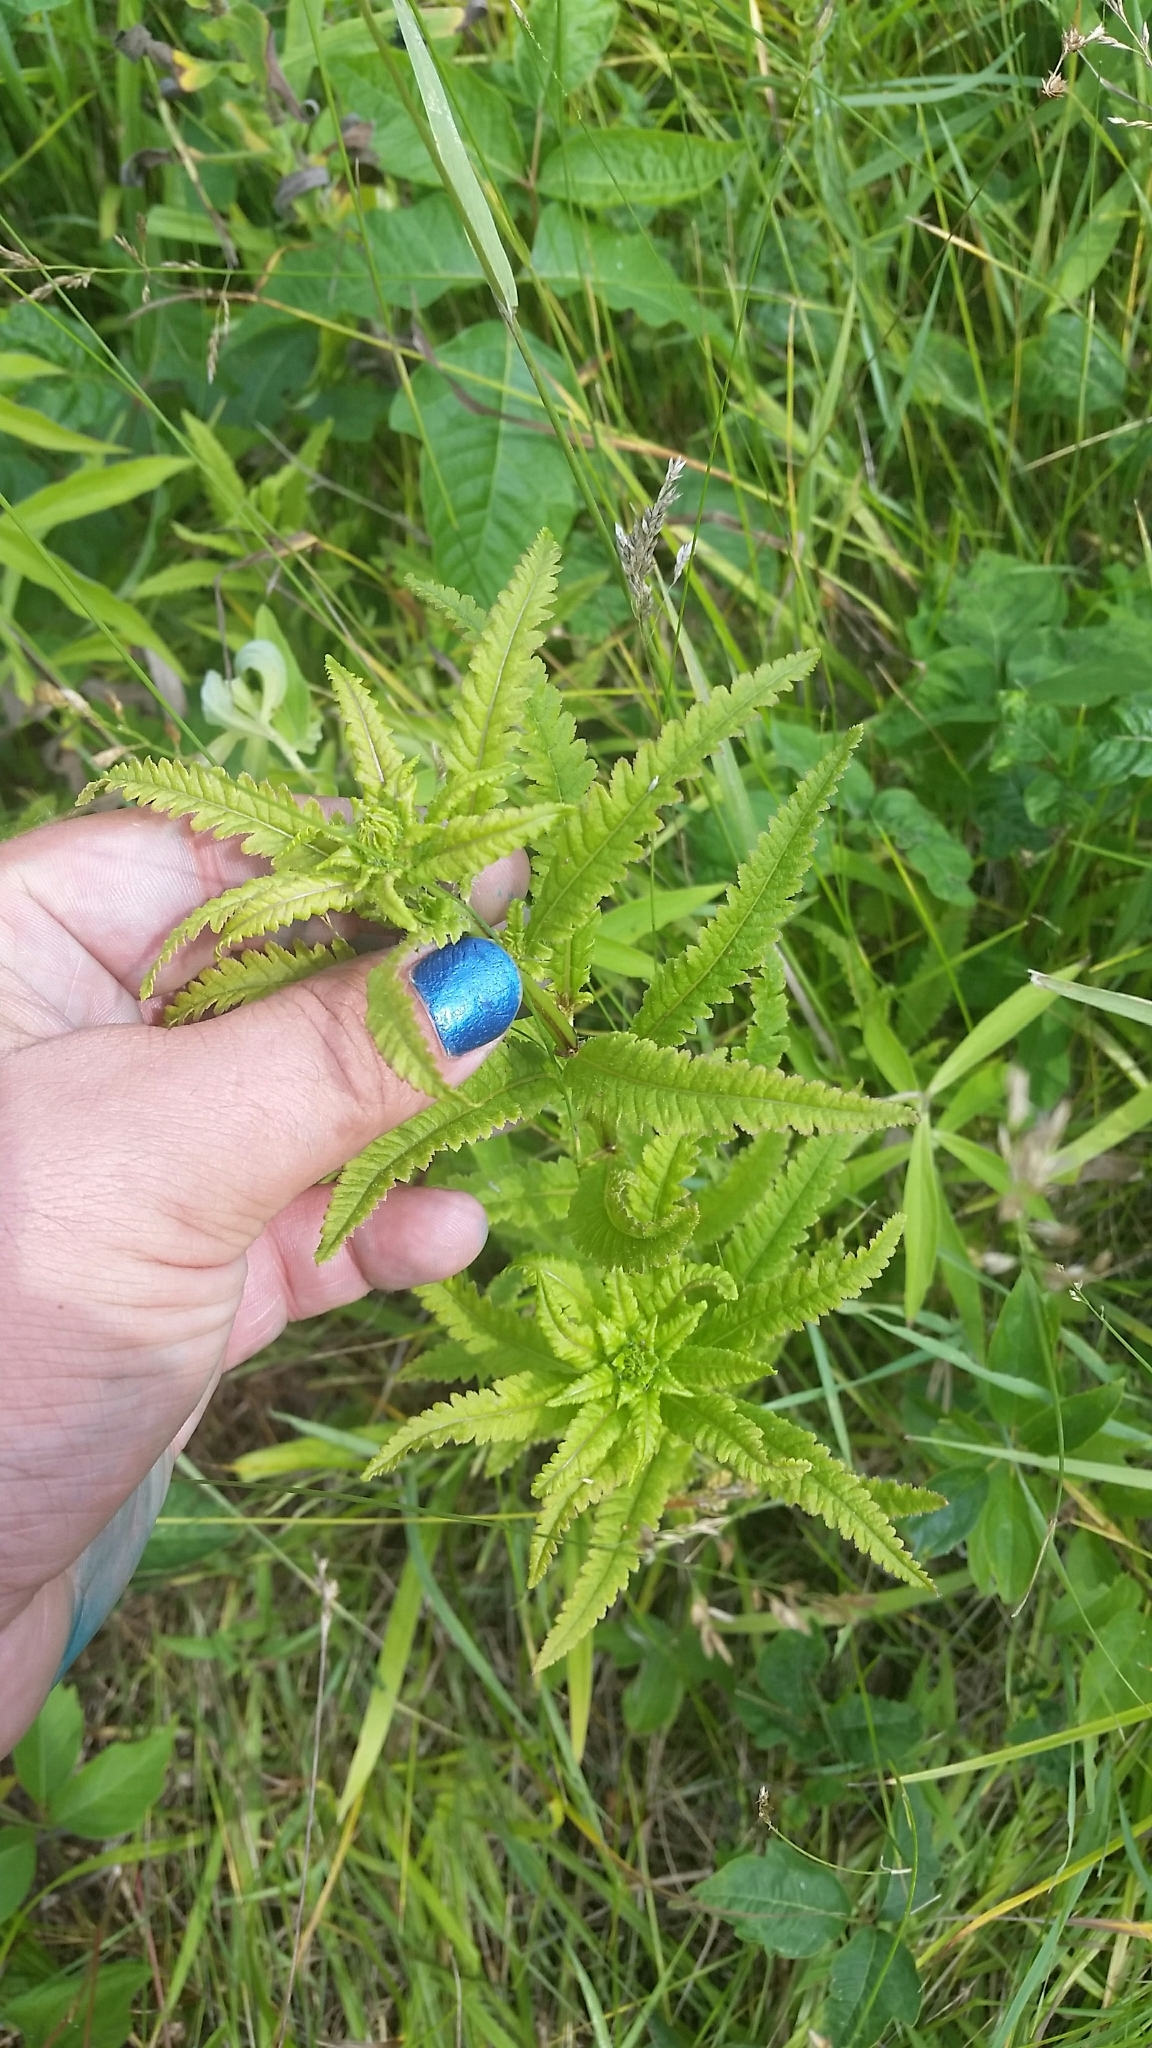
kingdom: Plantae
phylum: Tracheophyta
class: Magnoliopsida
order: Lamiales
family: Orobanchaceae
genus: Pedicularis
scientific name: Pedicularis lanceolata
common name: Swamp lousewort
